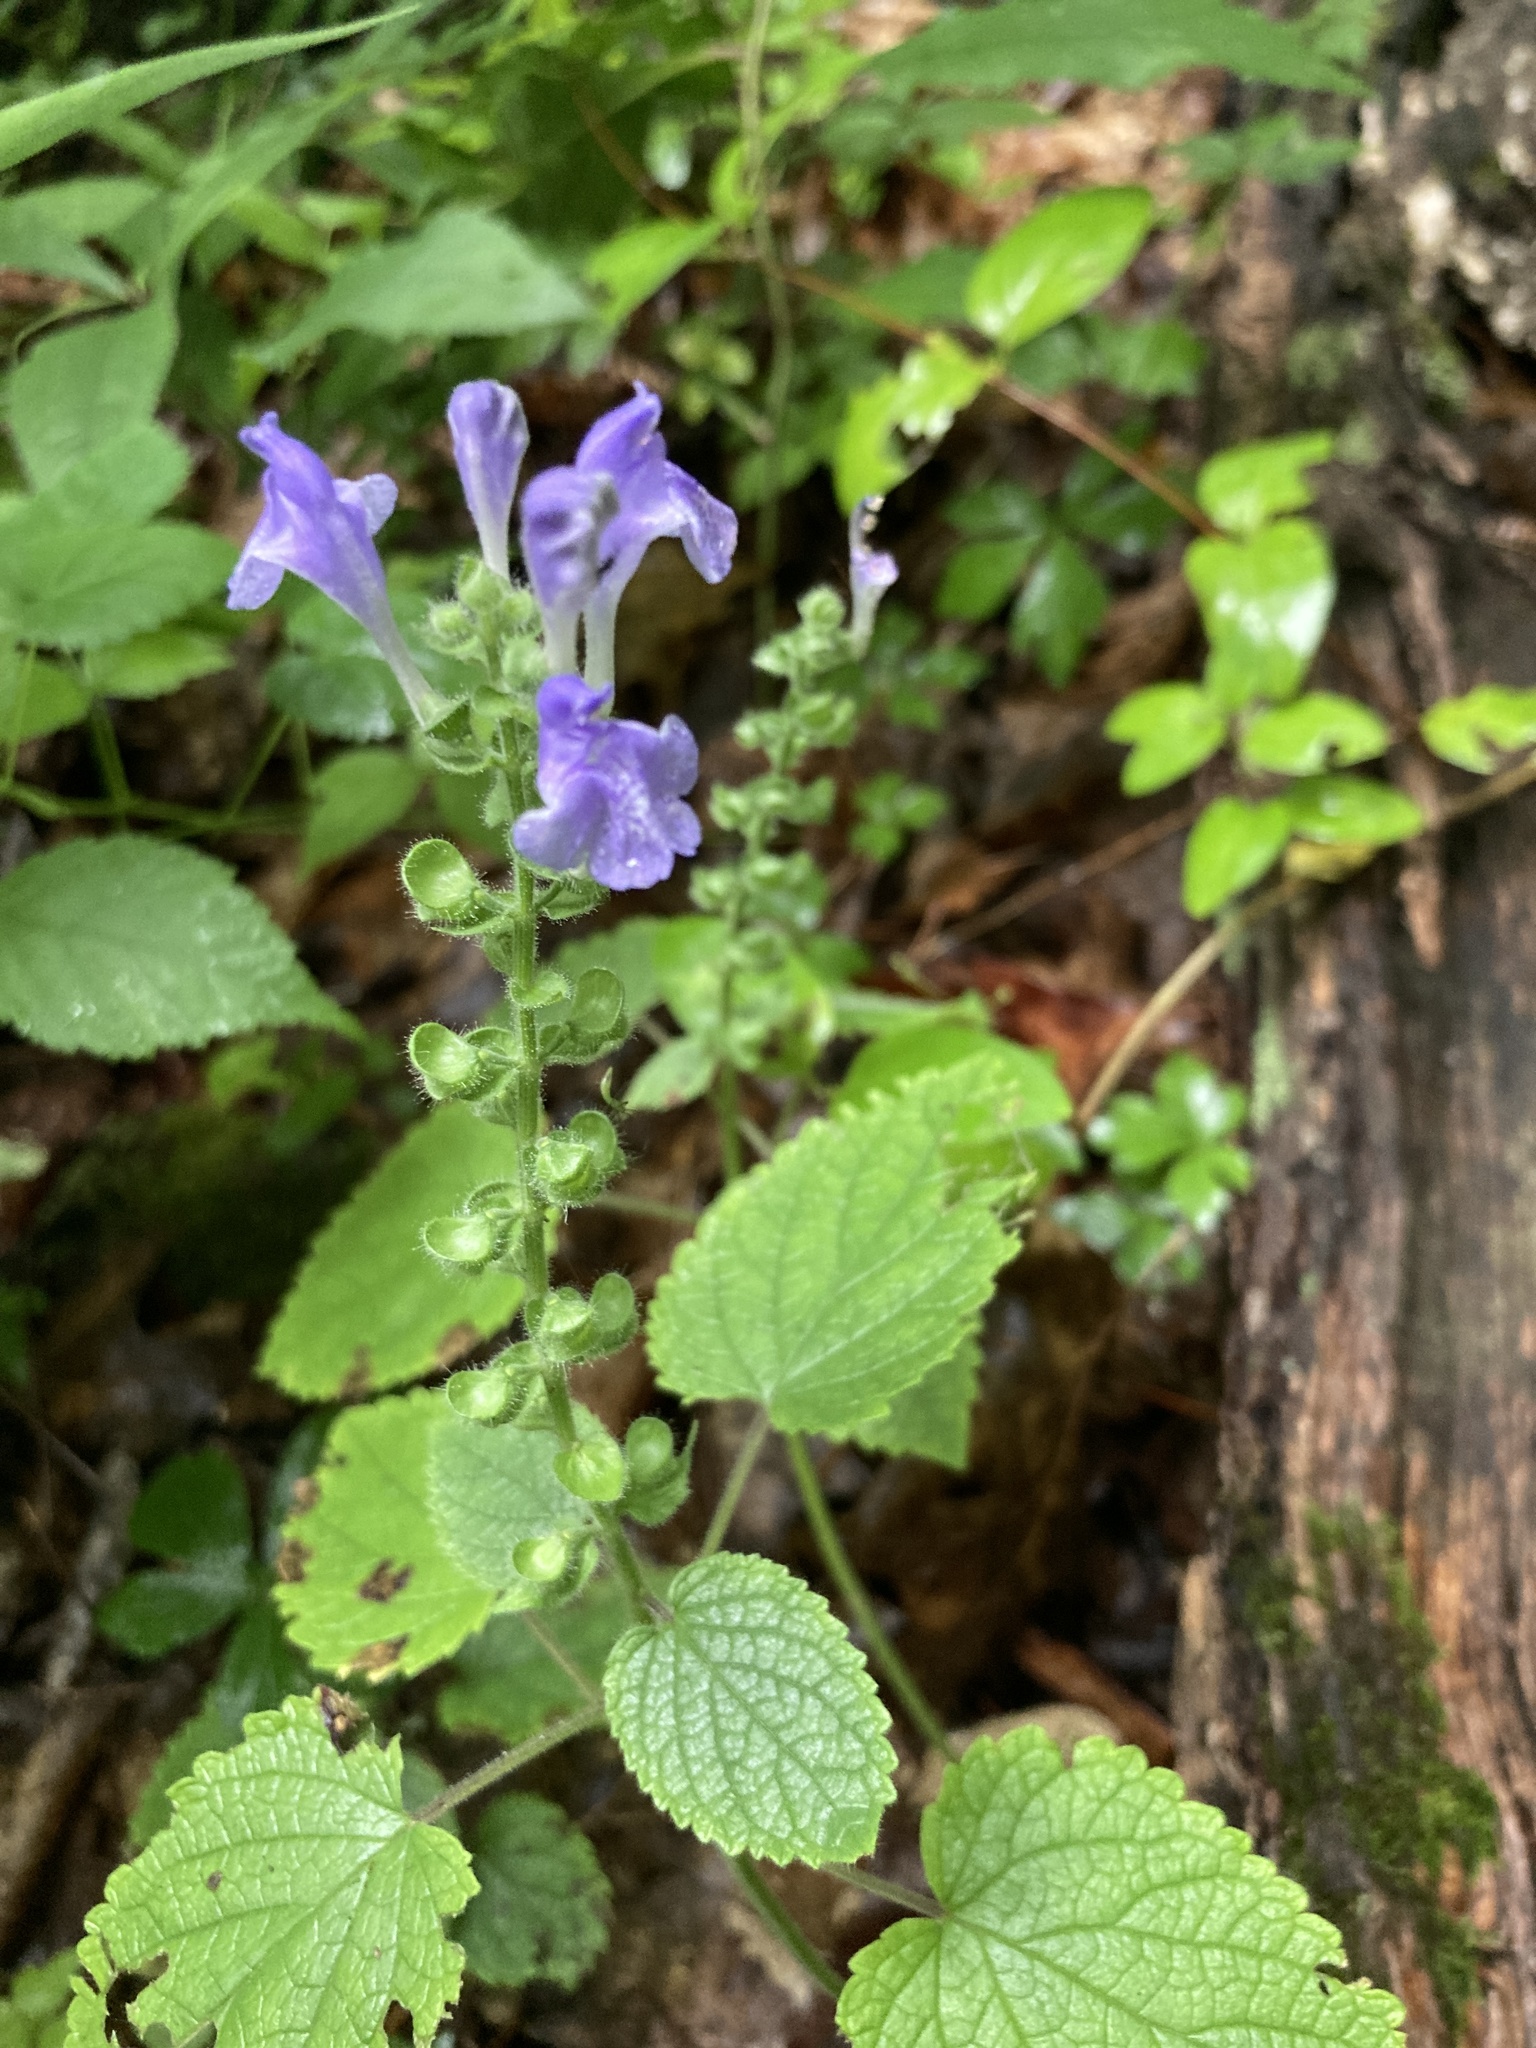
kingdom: Plantae
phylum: Tracheophyta
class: Magnoliopsida
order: Lamiales
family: Lamiaceae
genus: Scutellaria
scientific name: Scutellaria ovata
